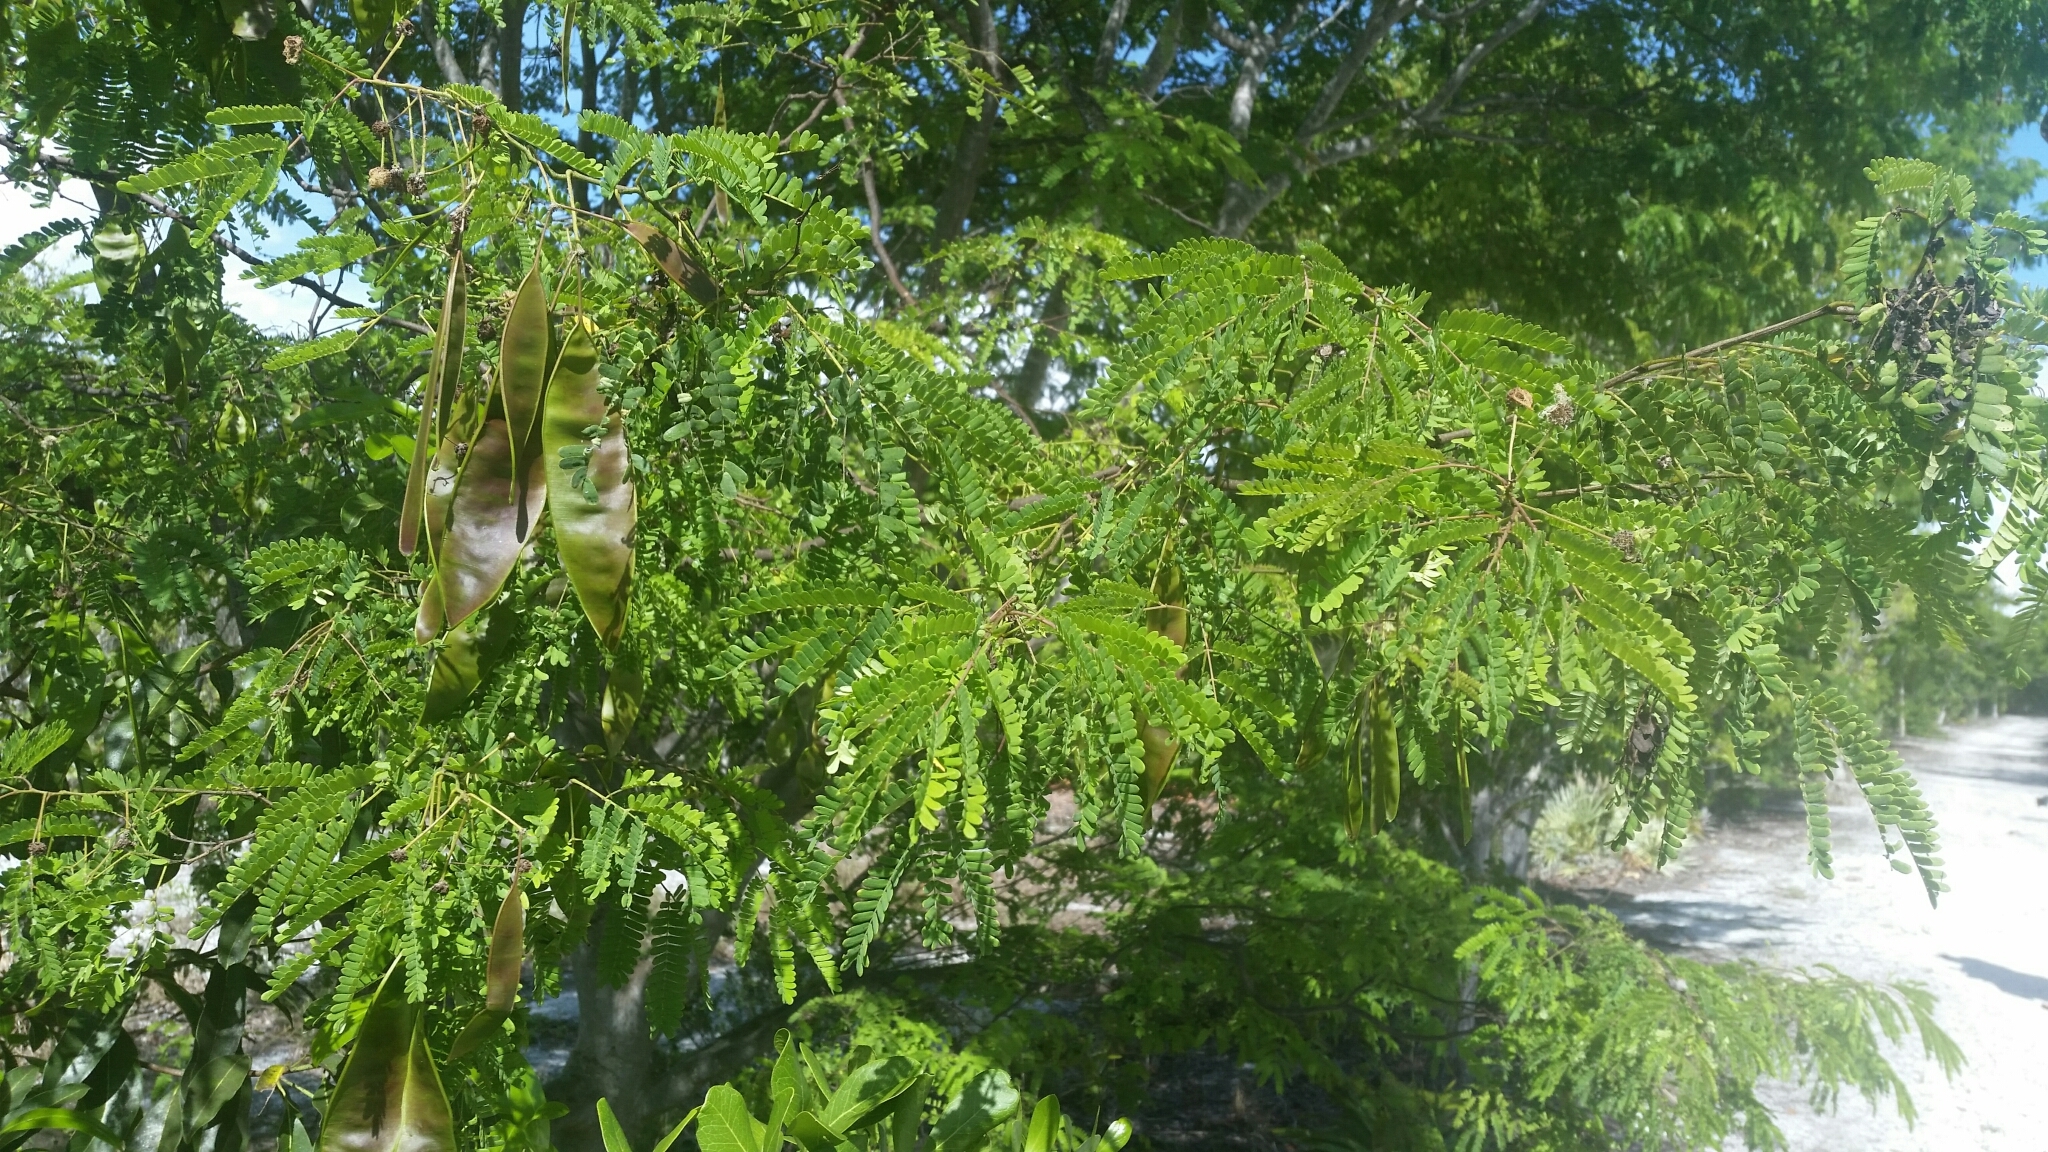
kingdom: Plantae
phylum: Tracheophyta
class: Magnoliopsida
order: Fabales
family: Fabaceae
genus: Lysiloma
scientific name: Lysiloma latisiliquum
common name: Wild tamarind
